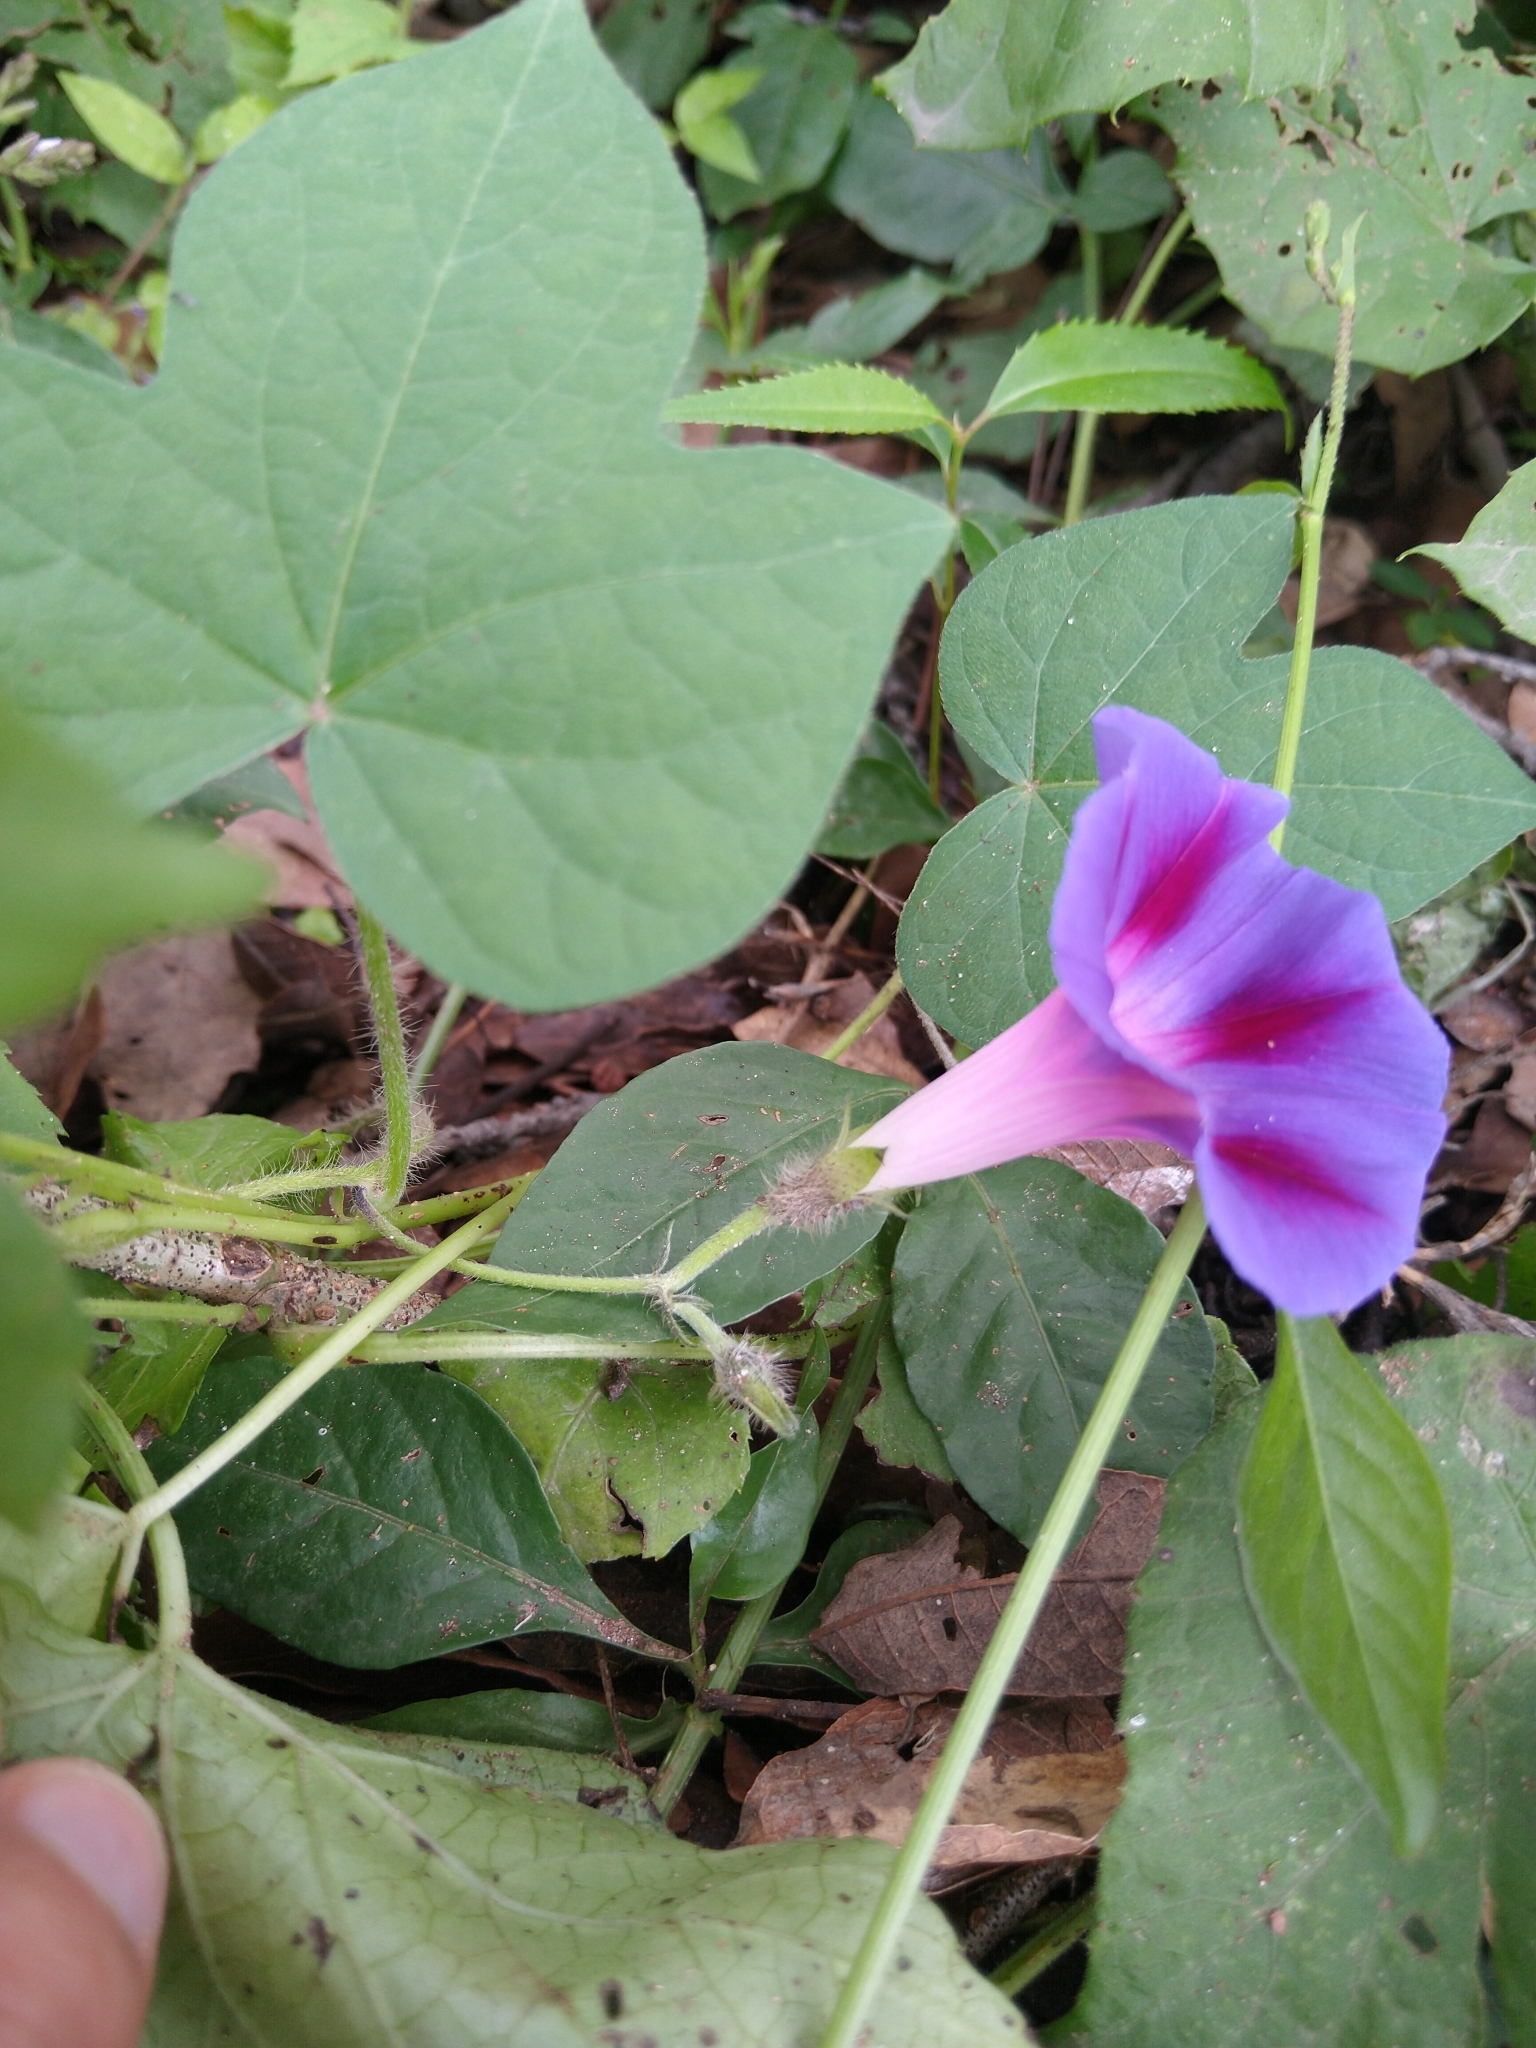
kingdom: Plantae
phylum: Tracheophyta
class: Magnoliopsida
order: Solanales
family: Convolvulaceae
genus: Ipomoea
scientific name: Ipomoea purpurea
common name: Common morning-glory
